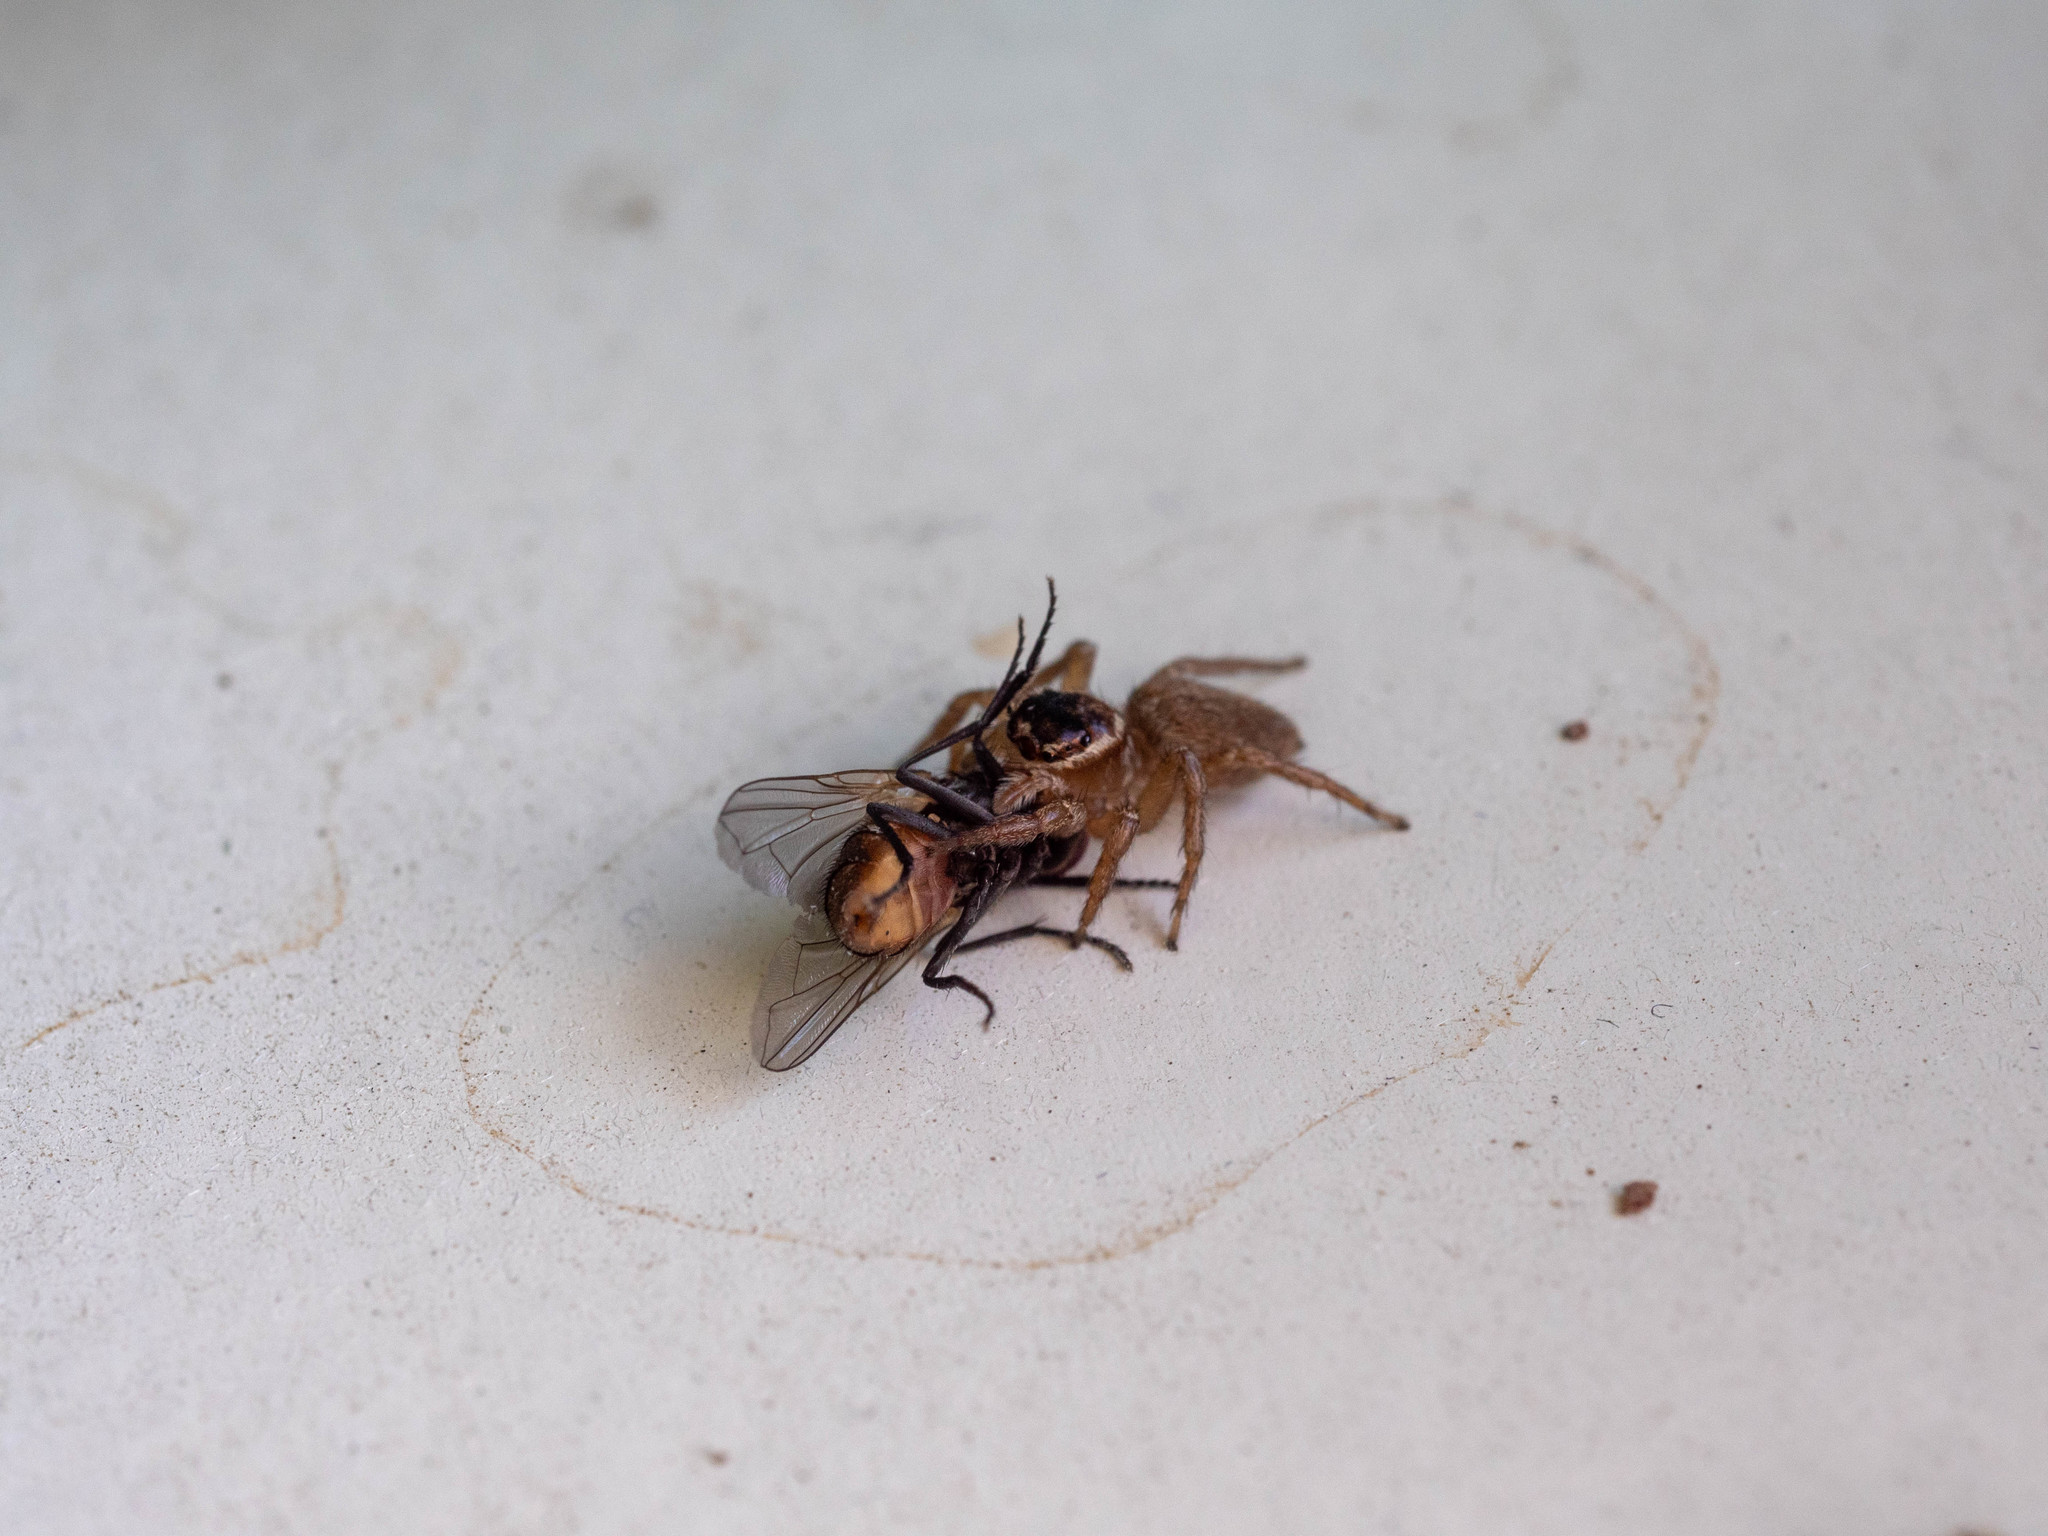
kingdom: Animalia
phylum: Arthropoda
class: Arachnida
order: Araneae
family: Salticidae
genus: Maratus
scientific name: Maratus griseus
